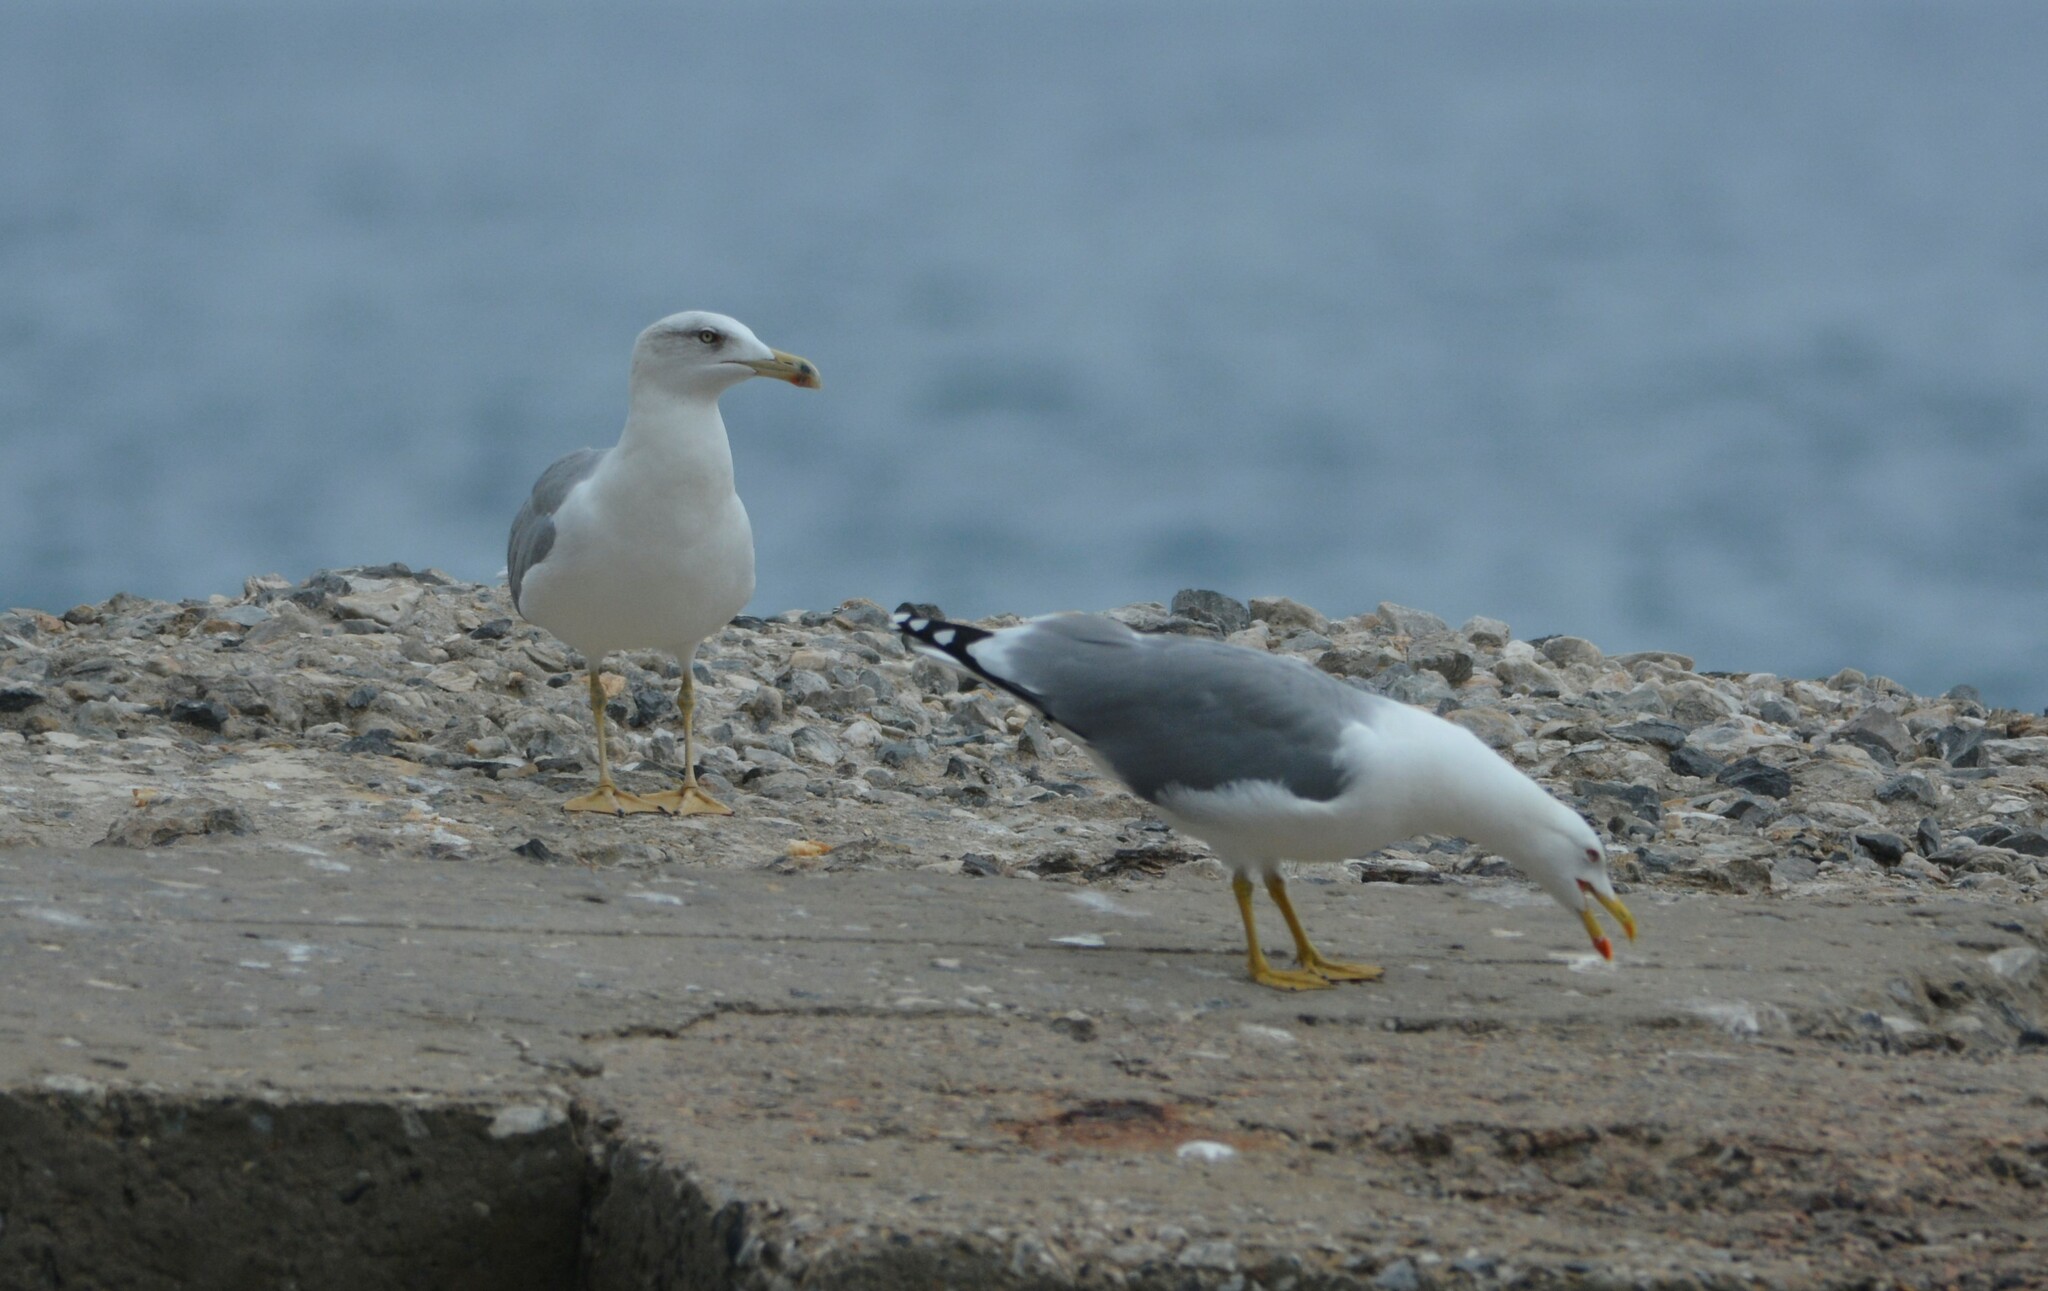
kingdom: Animalia
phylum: Chordata
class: Aves
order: Charadriiformes
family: Laridae
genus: Larus
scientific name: Larus michahellis
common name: Yellow-legged gull
